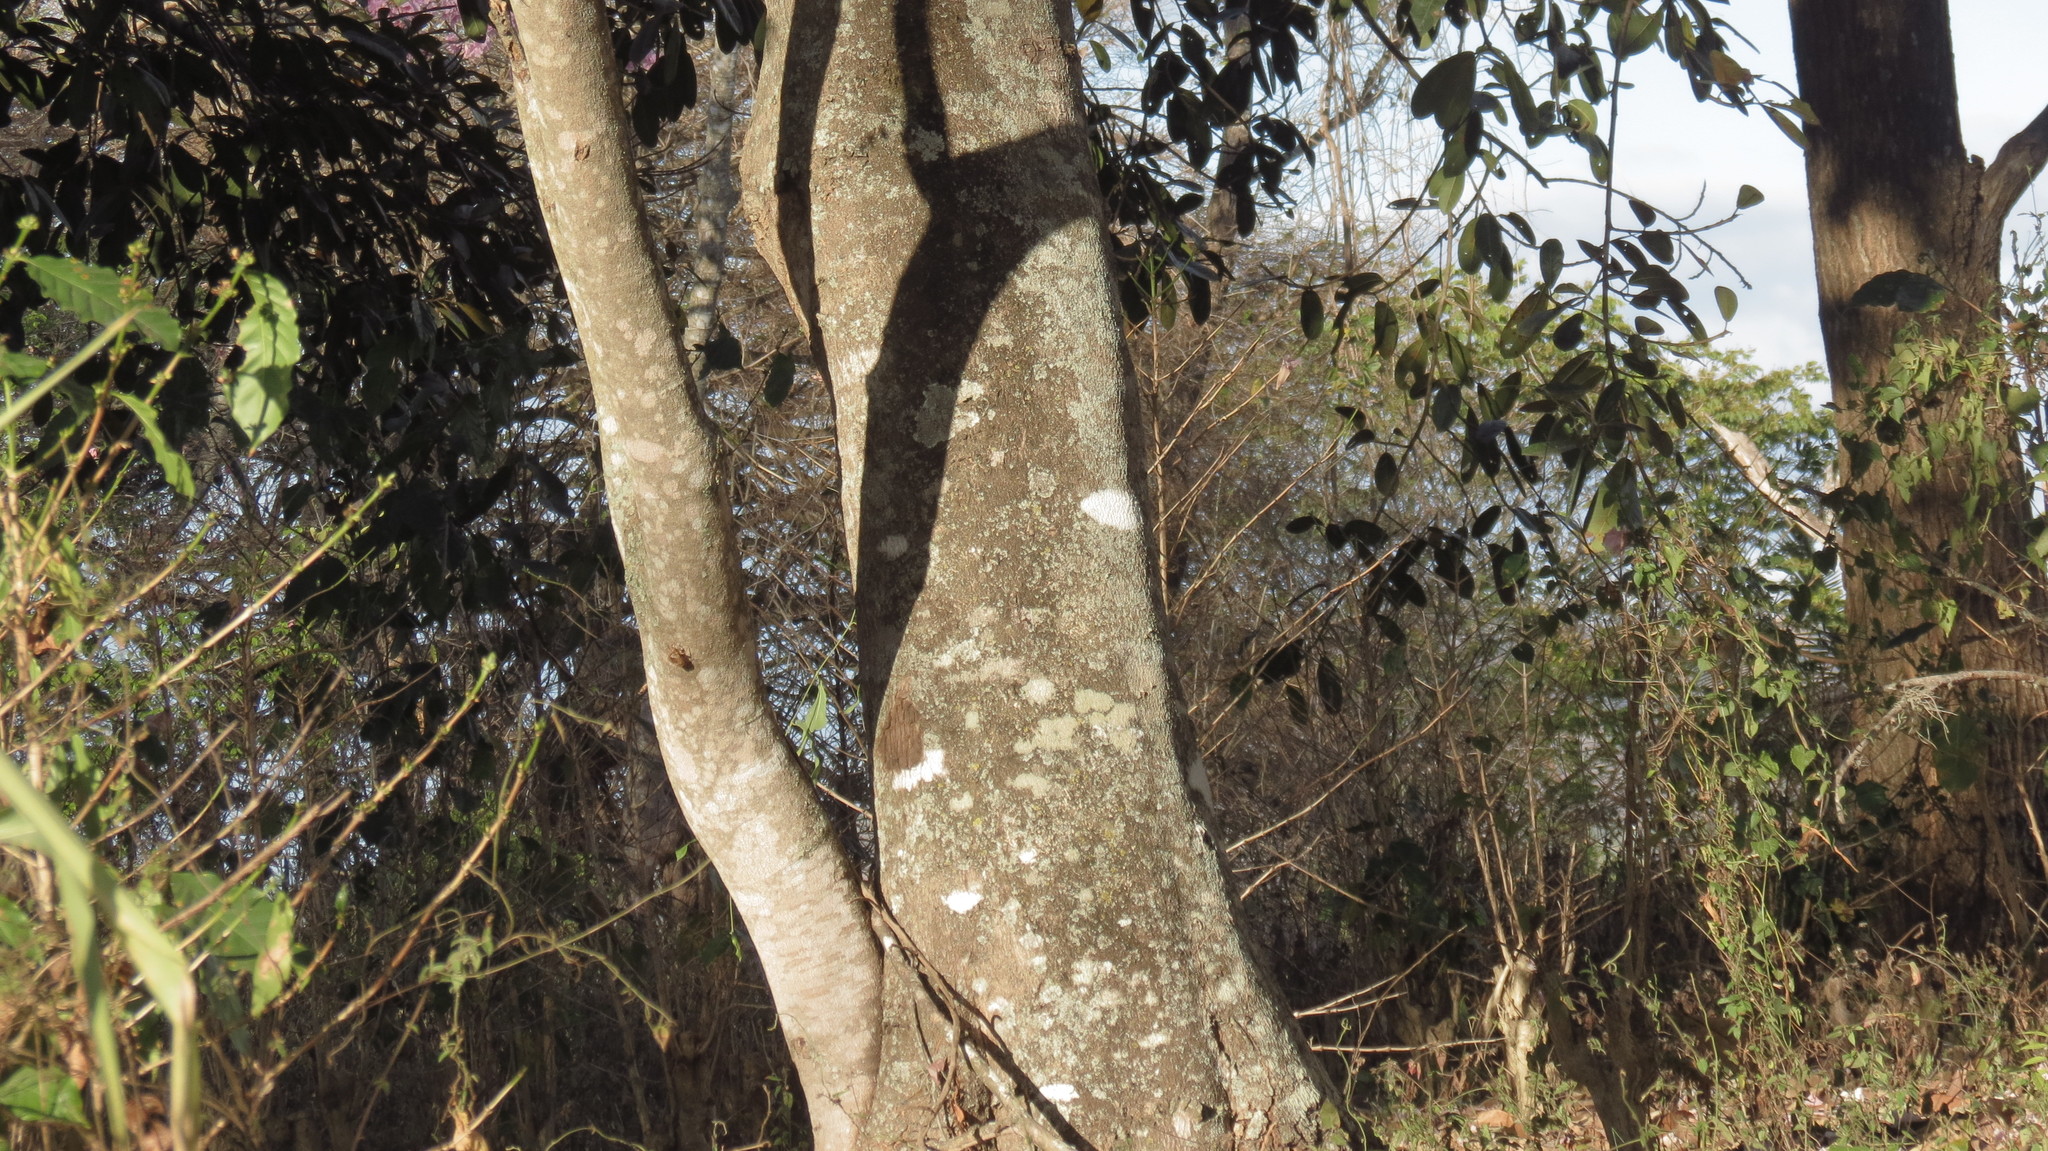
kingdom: Plantae
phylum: Tracheophyta
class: Magnoliopsida
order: Fabales
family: Fabaceae
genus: Inga
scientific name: Inga vera
